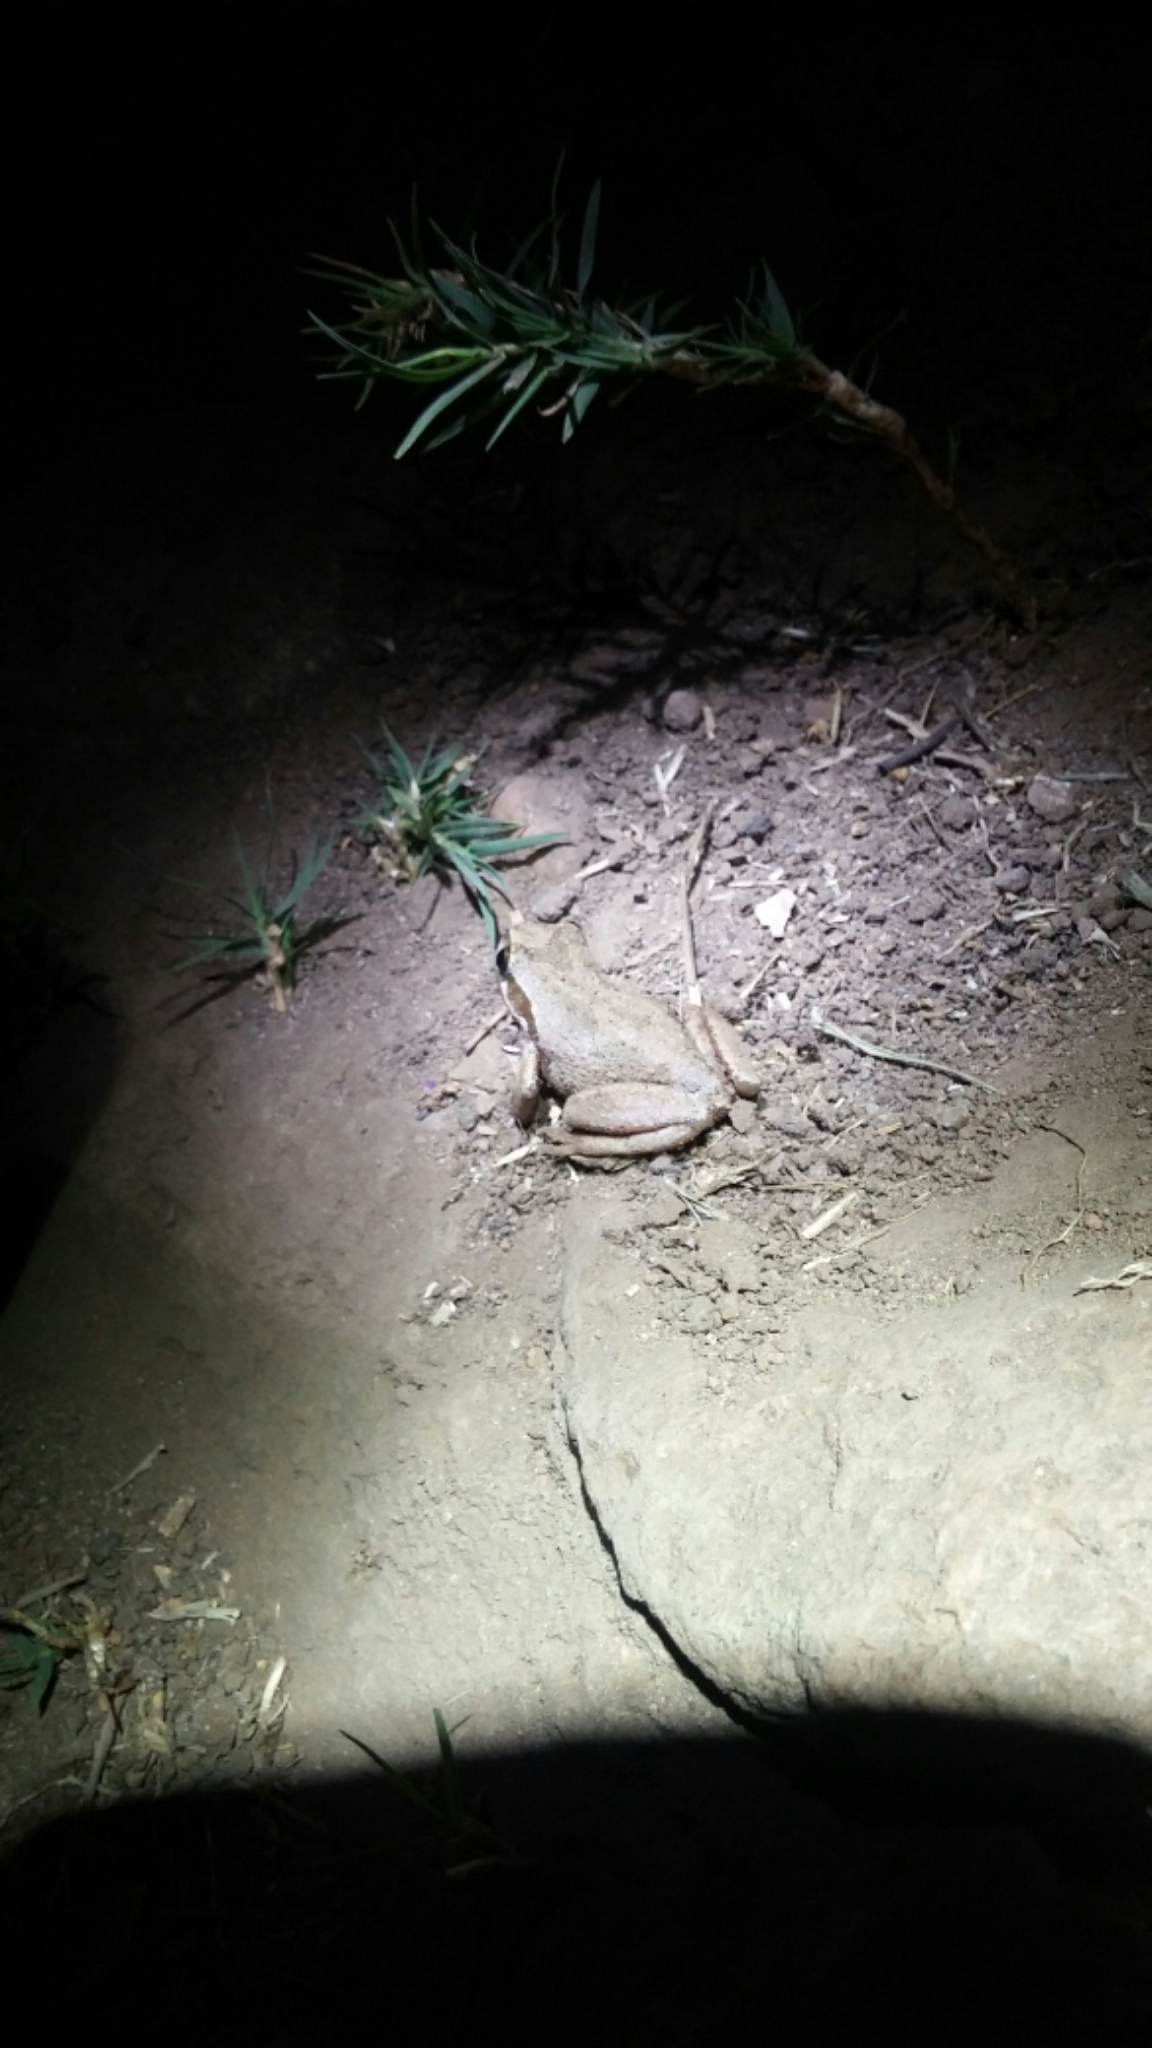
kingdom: Animalia
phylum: Chordata
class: Amphibia
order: Anura
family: Hylidae
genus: Pseudacris
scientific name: Pseudacris regilla
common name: Pacific chorus frog
